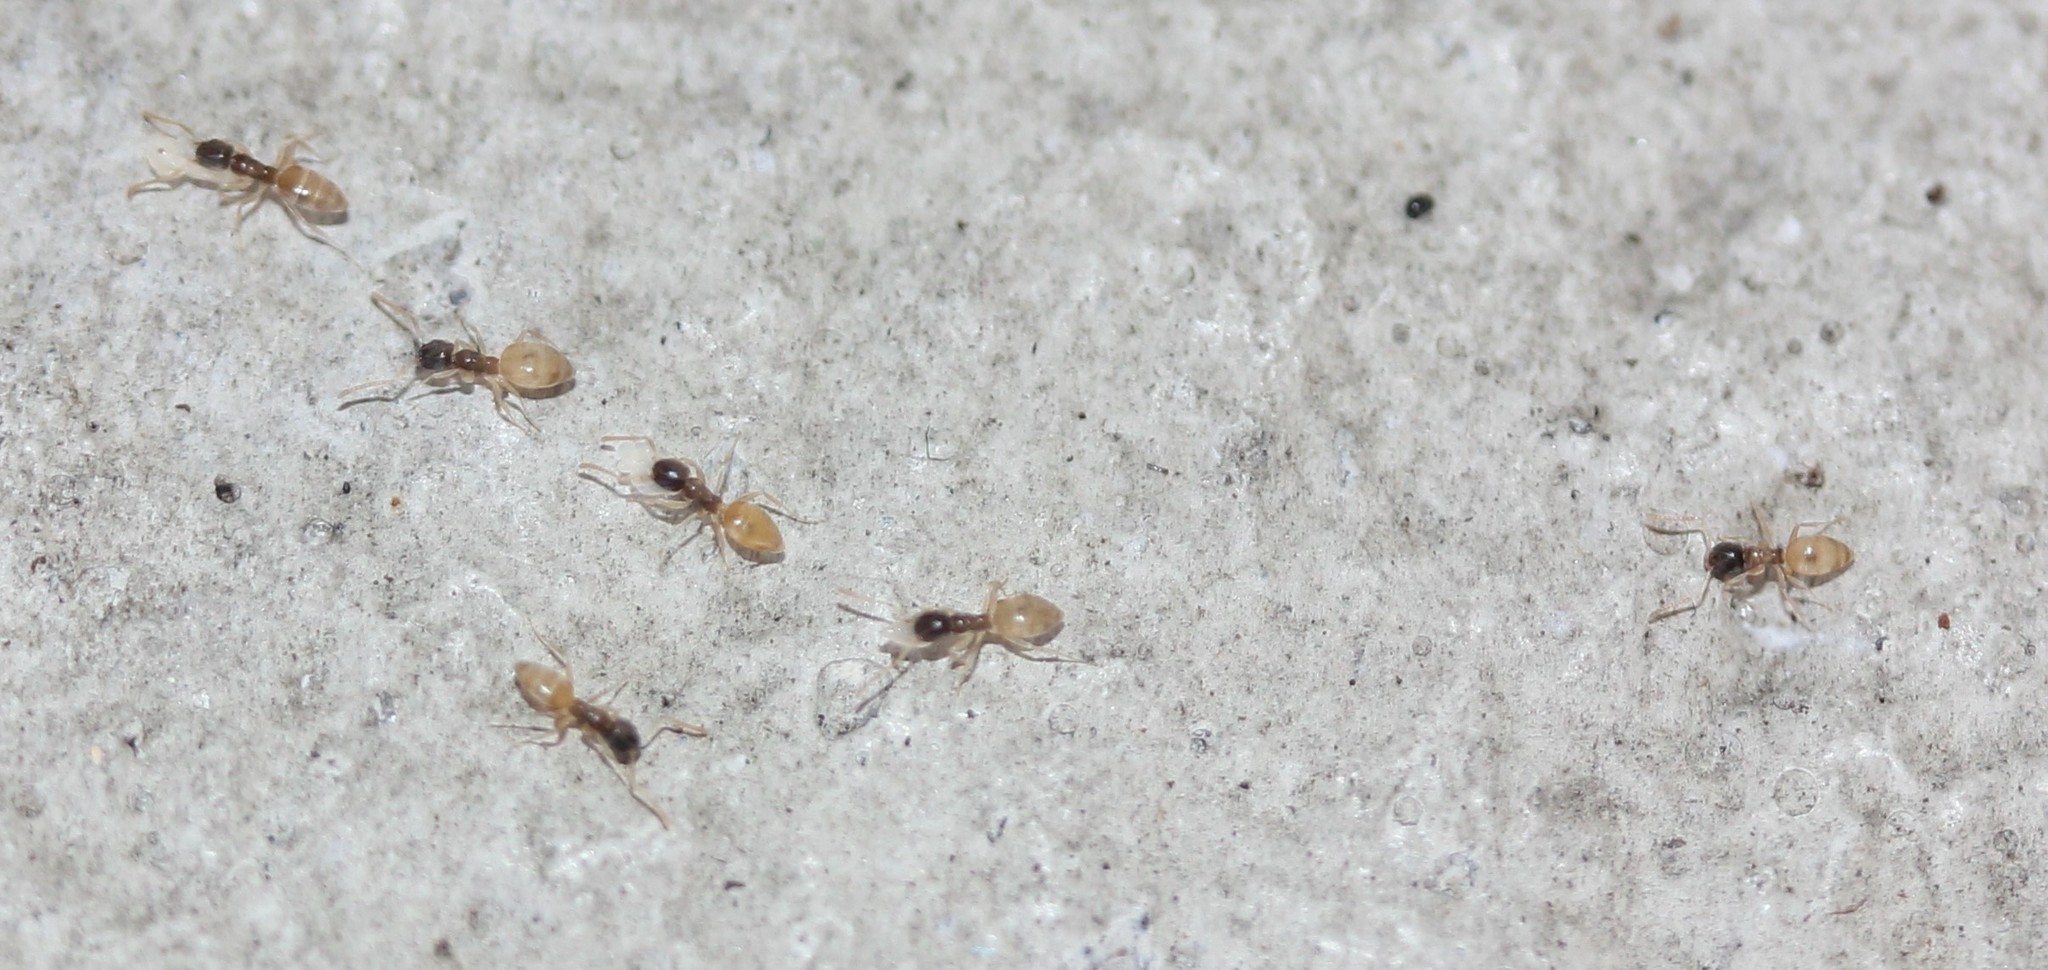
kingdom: Animalia
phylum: Arthropoda
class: Insecta
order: Hymenoptera
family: Formicidae
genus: Tapinoma
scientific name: Tapinoma melanocephalum
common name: Ghost ant
